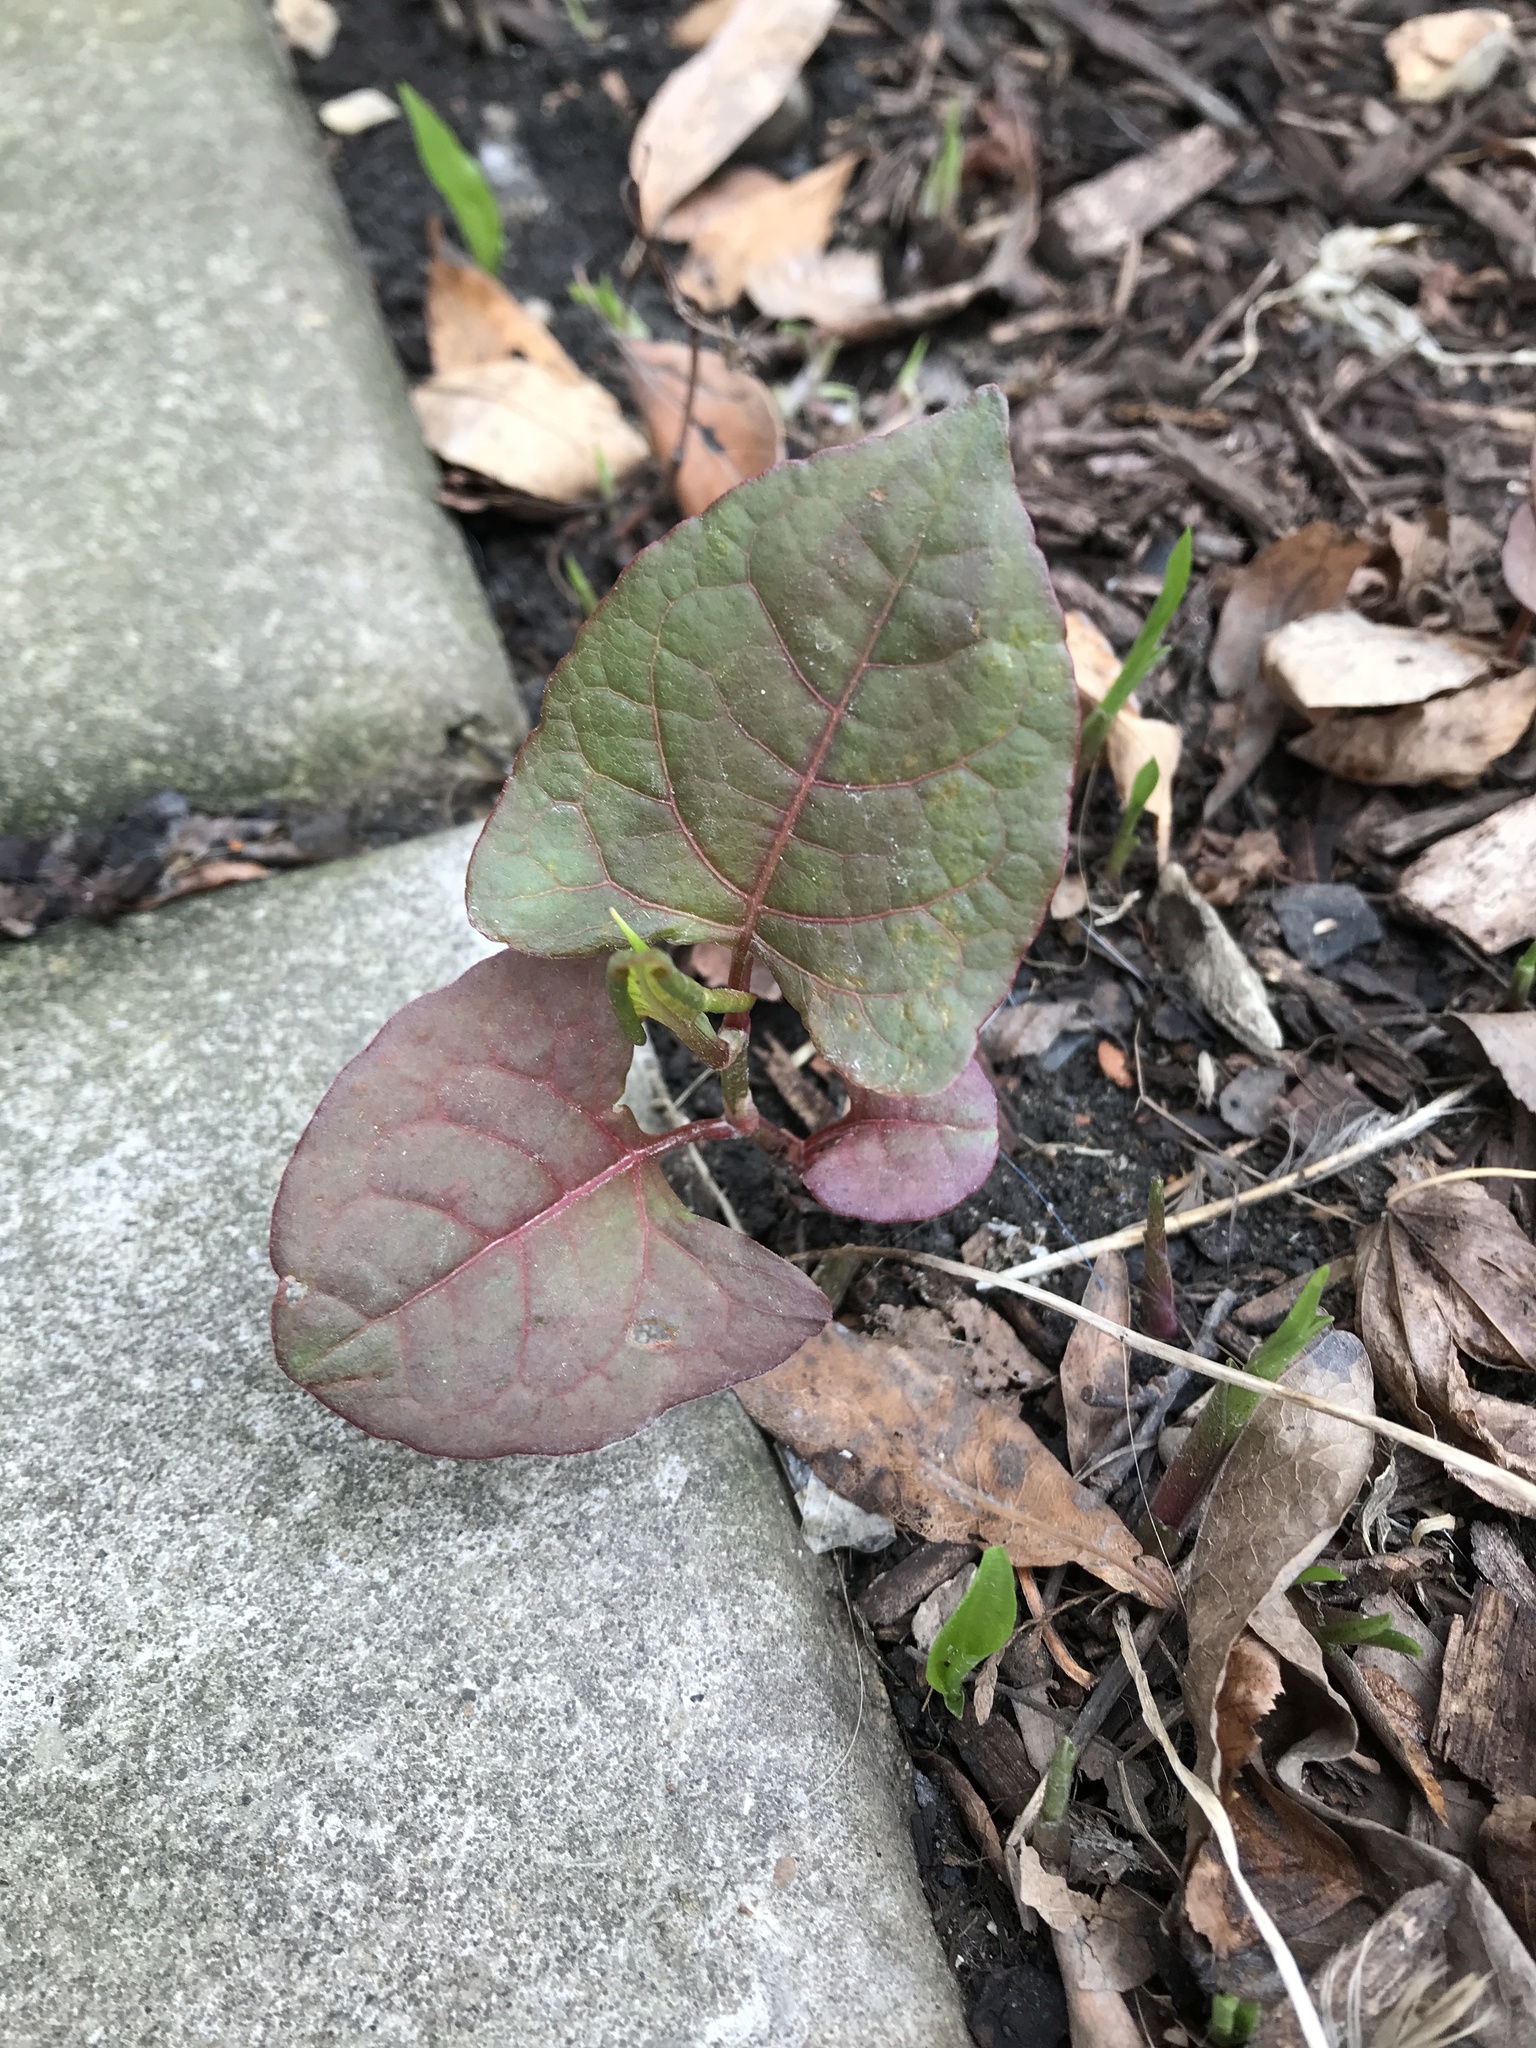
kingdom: Plantae
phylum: Tracheophyta
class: Magnoliopsida
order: Caryophyllales
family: Polygonaceae
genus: Reynoutria
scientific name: Reynoutria japonica
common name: Japanese knotweed
